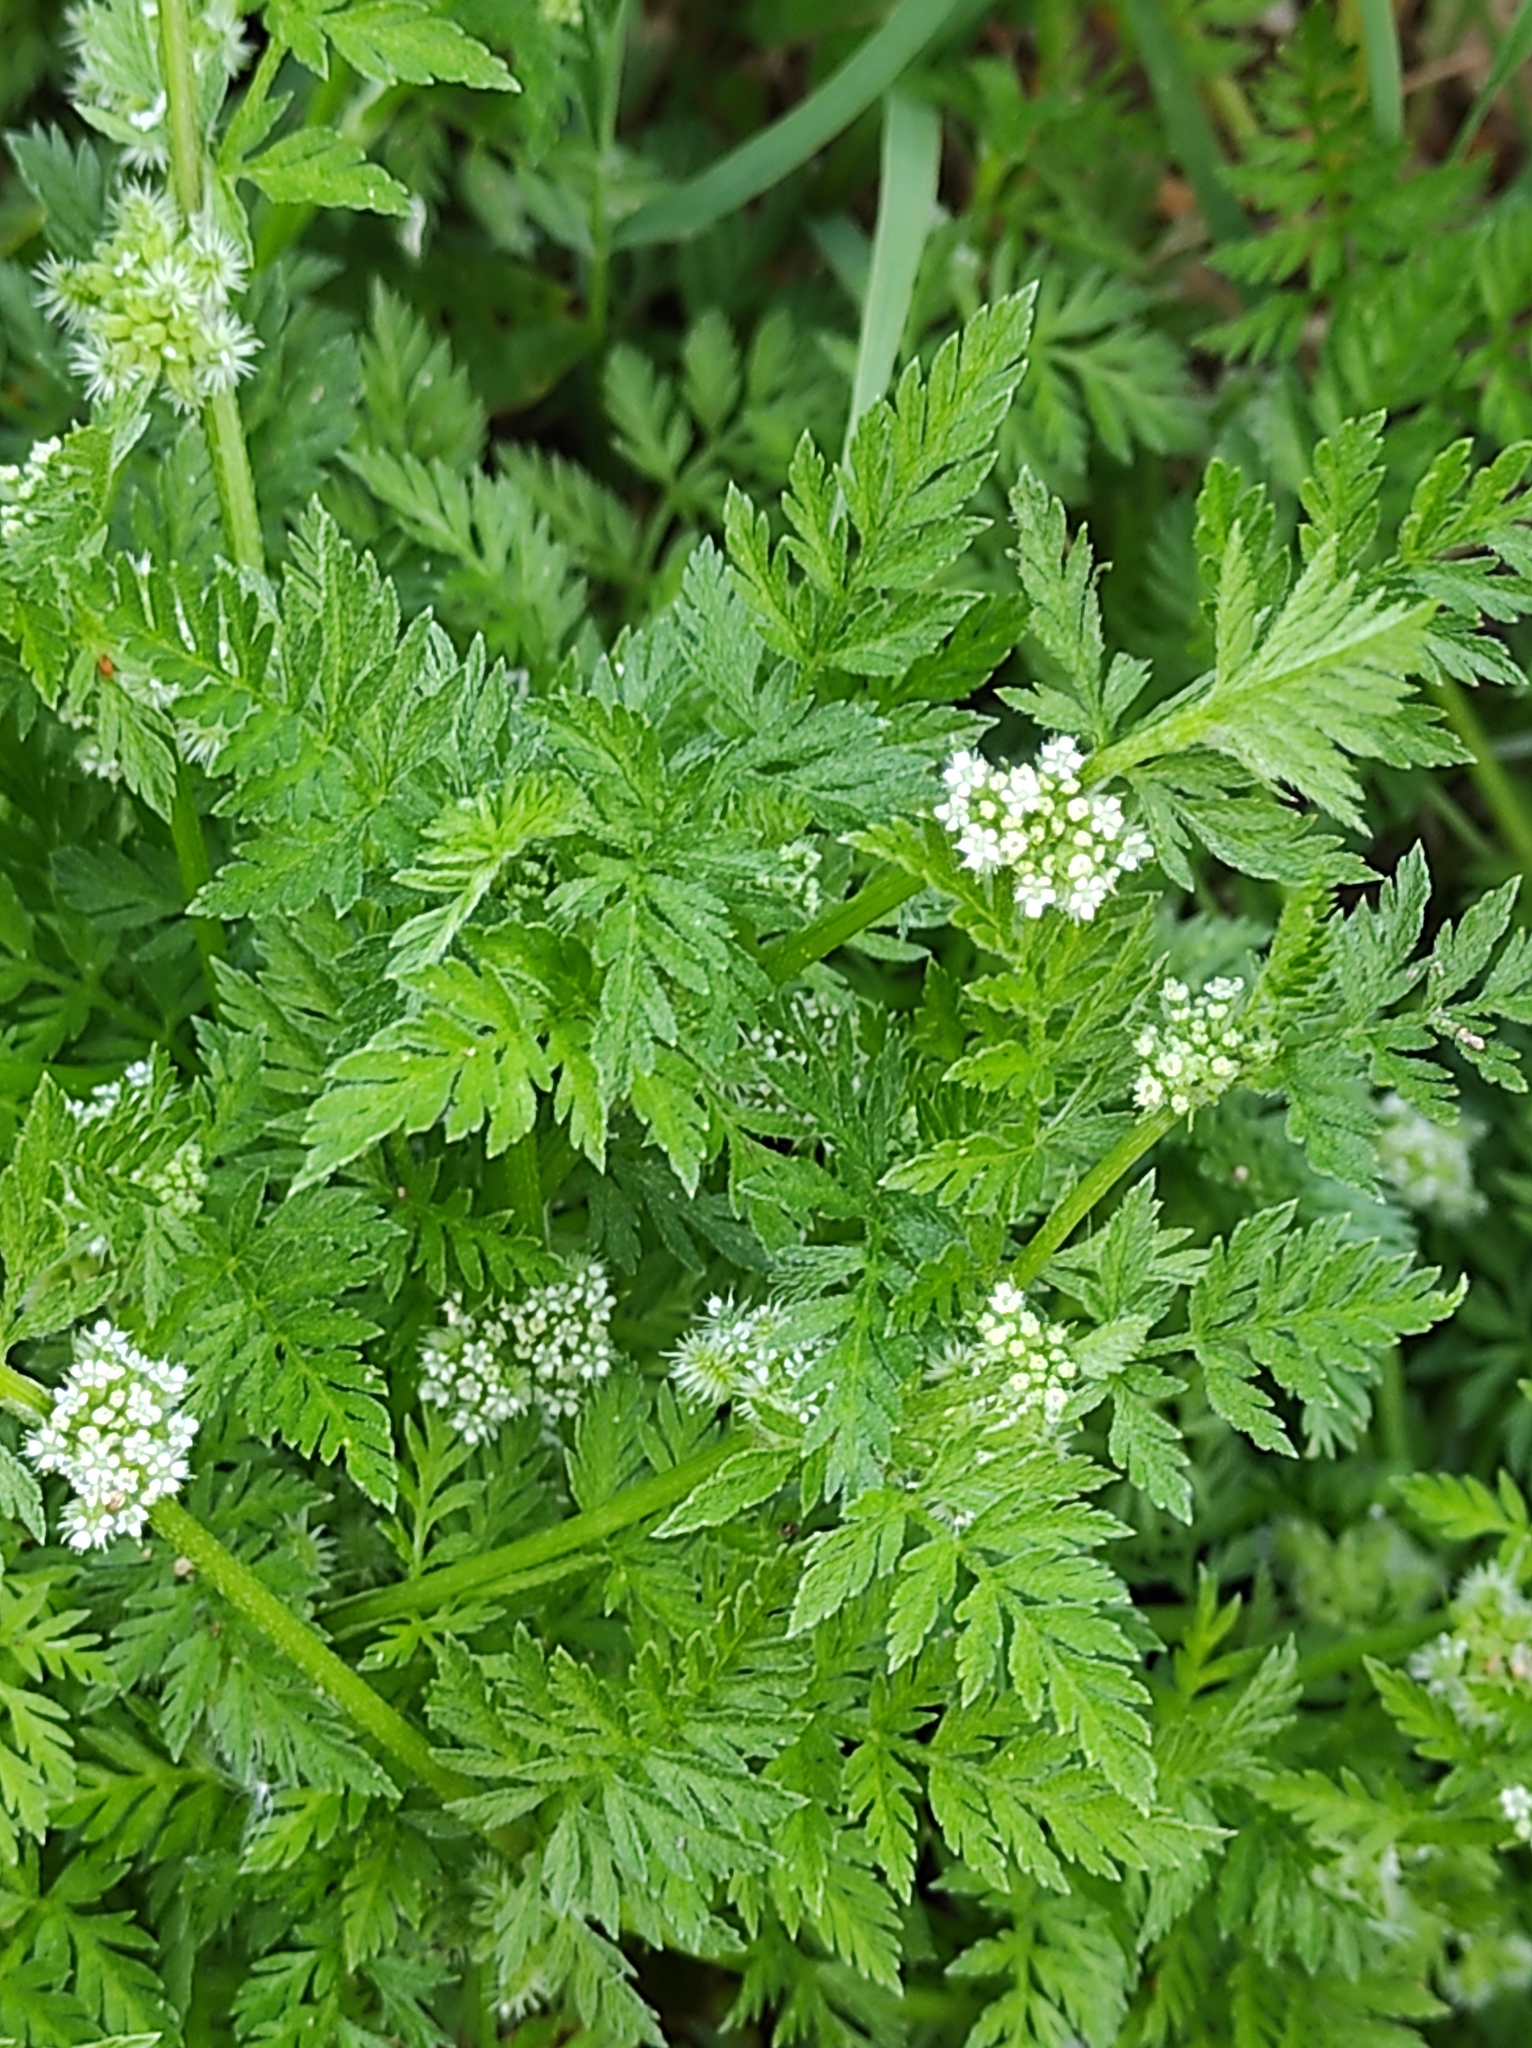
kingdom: Plantae
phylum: Tracheophyta
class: Magnoliopsida
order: Apiales
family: Apiaceae
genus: Torilis
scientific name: Torilis nodosa
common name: Knotted hedge-parsley
